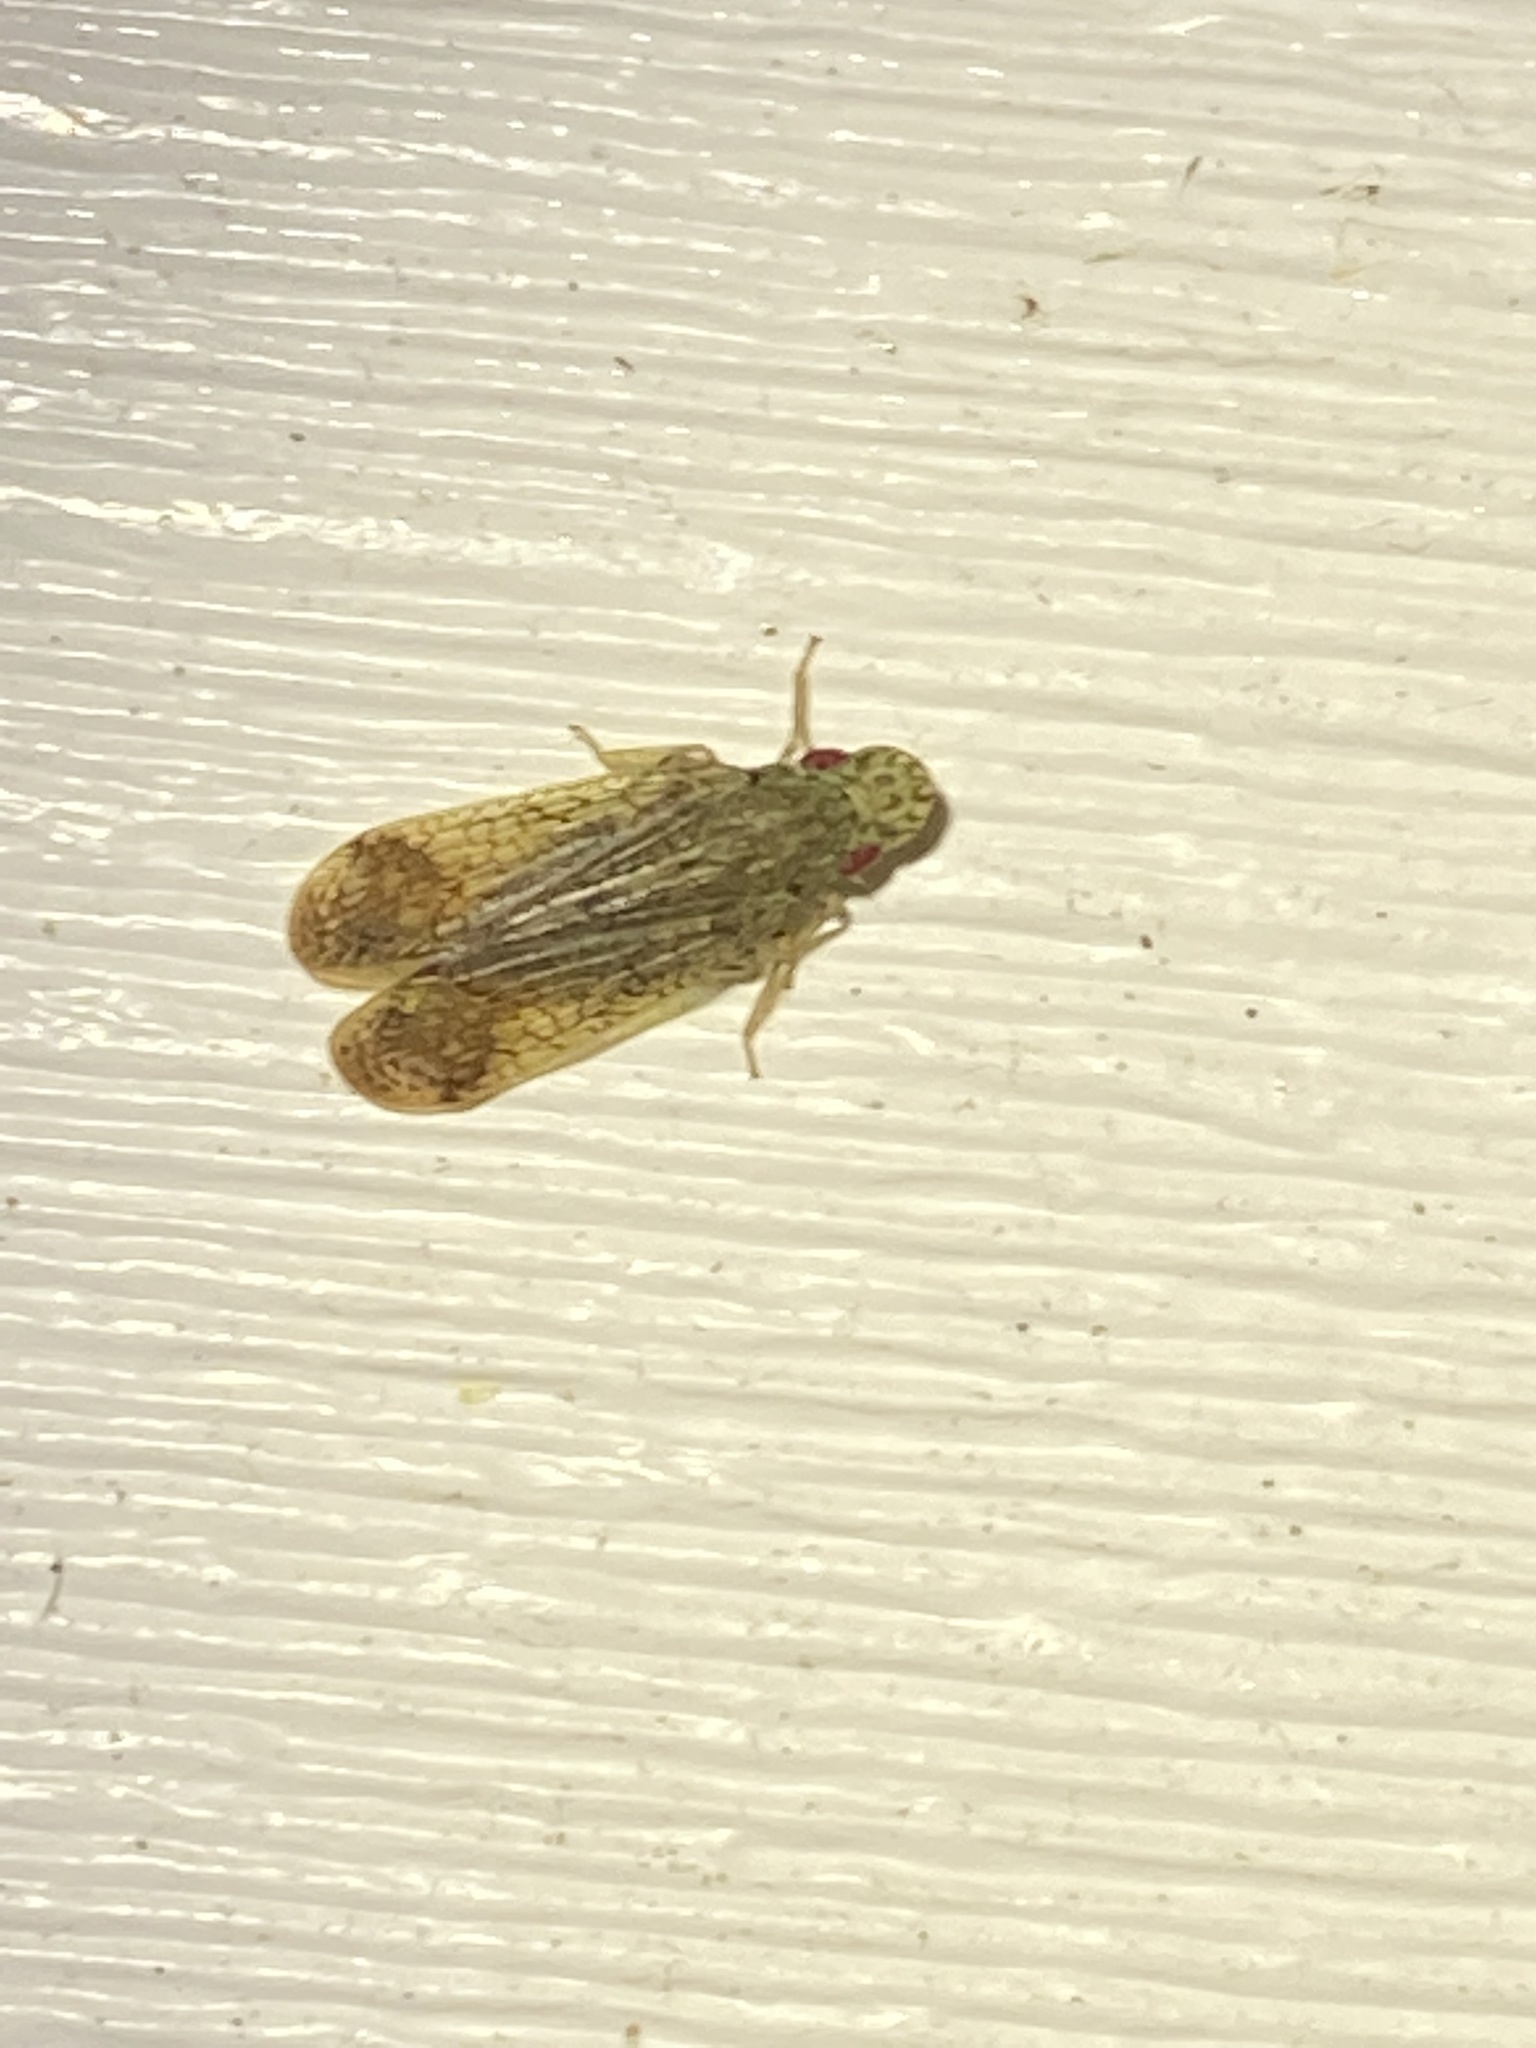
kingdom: Animalia
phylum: Arthropoda
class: Insecta
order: Hemiptera
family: Tropiduchidae
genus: Pelitropis
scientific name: Pelitropis rotulata
